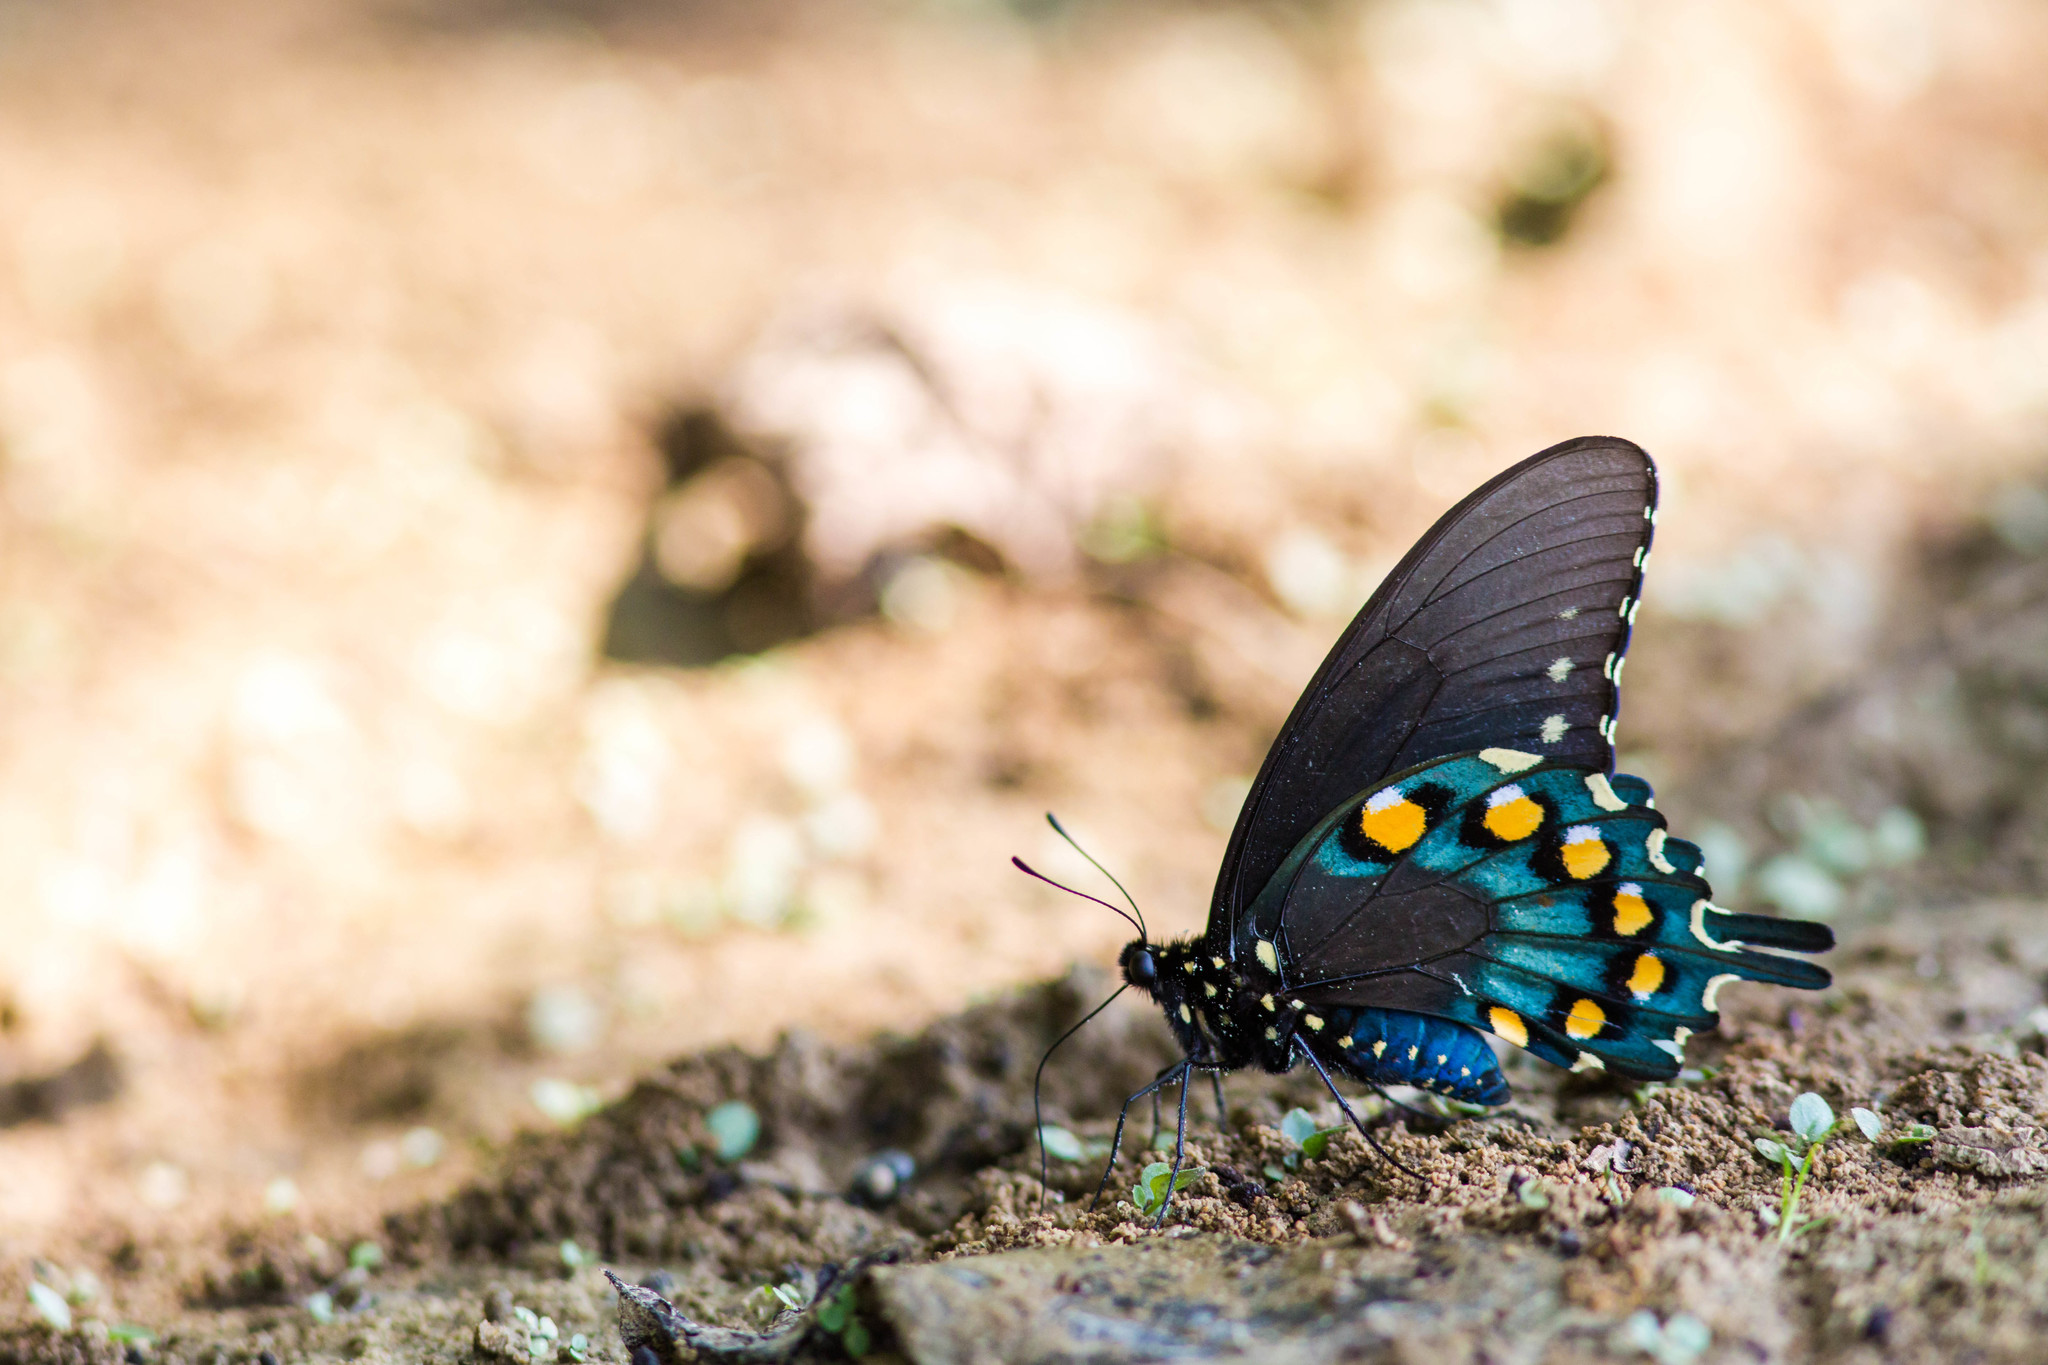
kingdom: Animalia
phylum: Arthropoda
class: Insecta
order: Lepidoptera
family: Papilionidae
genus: Battus
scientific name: Battus philenor
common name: Pipevine swallowtail
